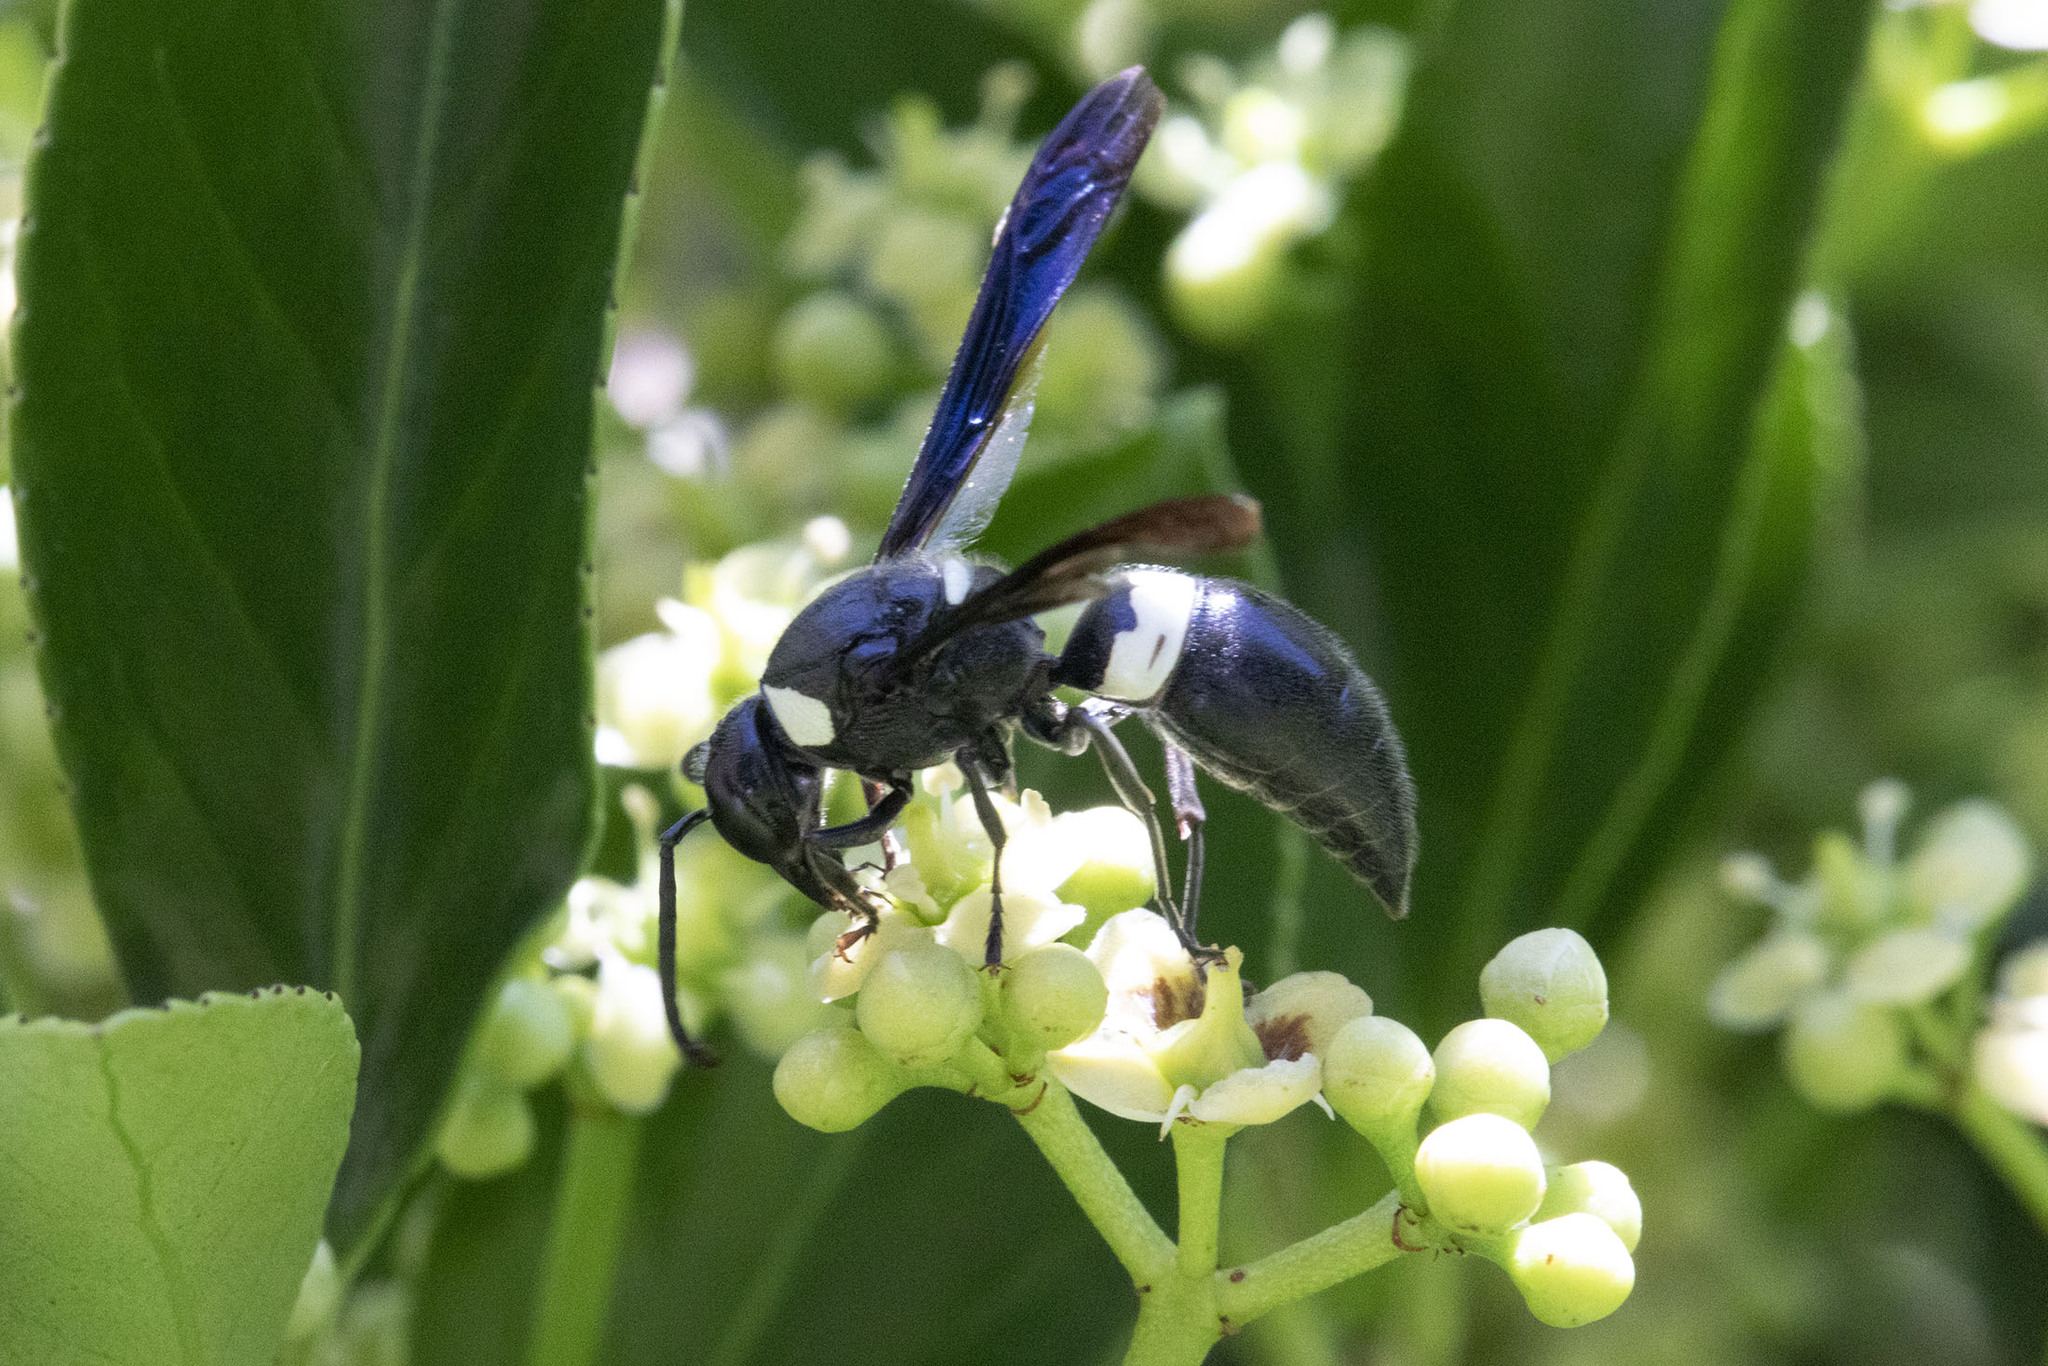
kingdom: Animalia
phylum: Arthropoda
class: Insecta
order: Hymenoptera
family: Eumenidae
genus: Monobia
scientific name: Monobia quadridens
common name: Four-toothed mason wasp
